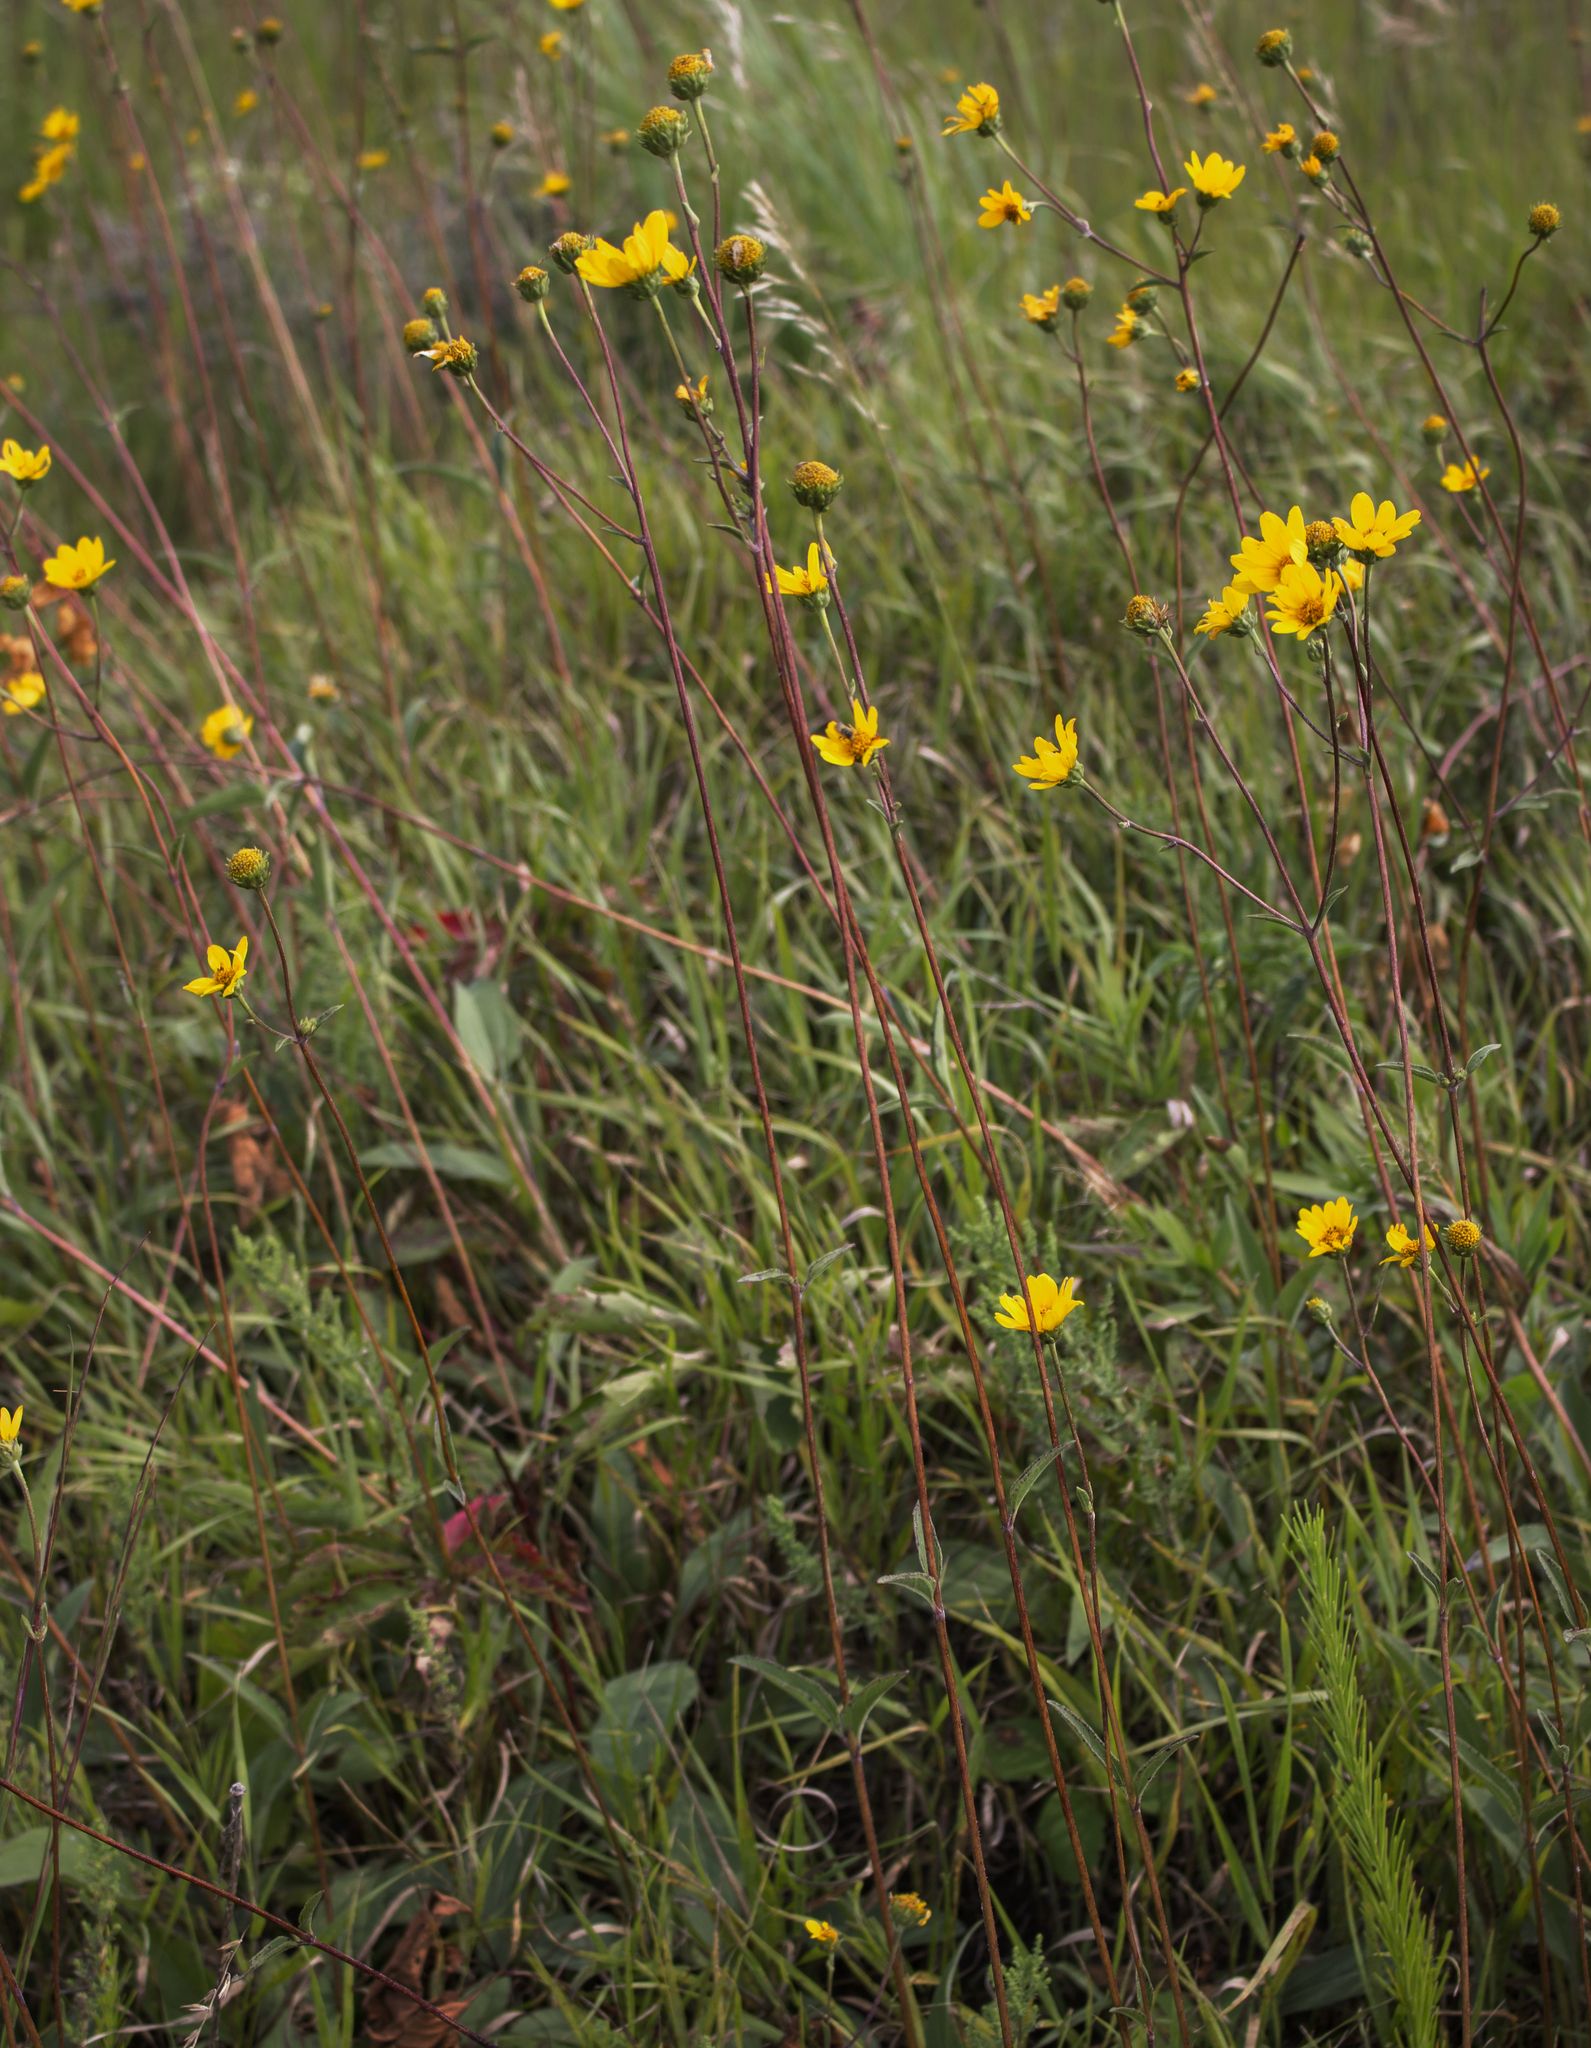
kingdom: Plantae
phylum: Tracheophyta
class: Magnoliopsida
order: Asterales
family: Asteraceae
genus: Helianthus
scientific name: Helianthus occidentalis
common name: Western sunflower
